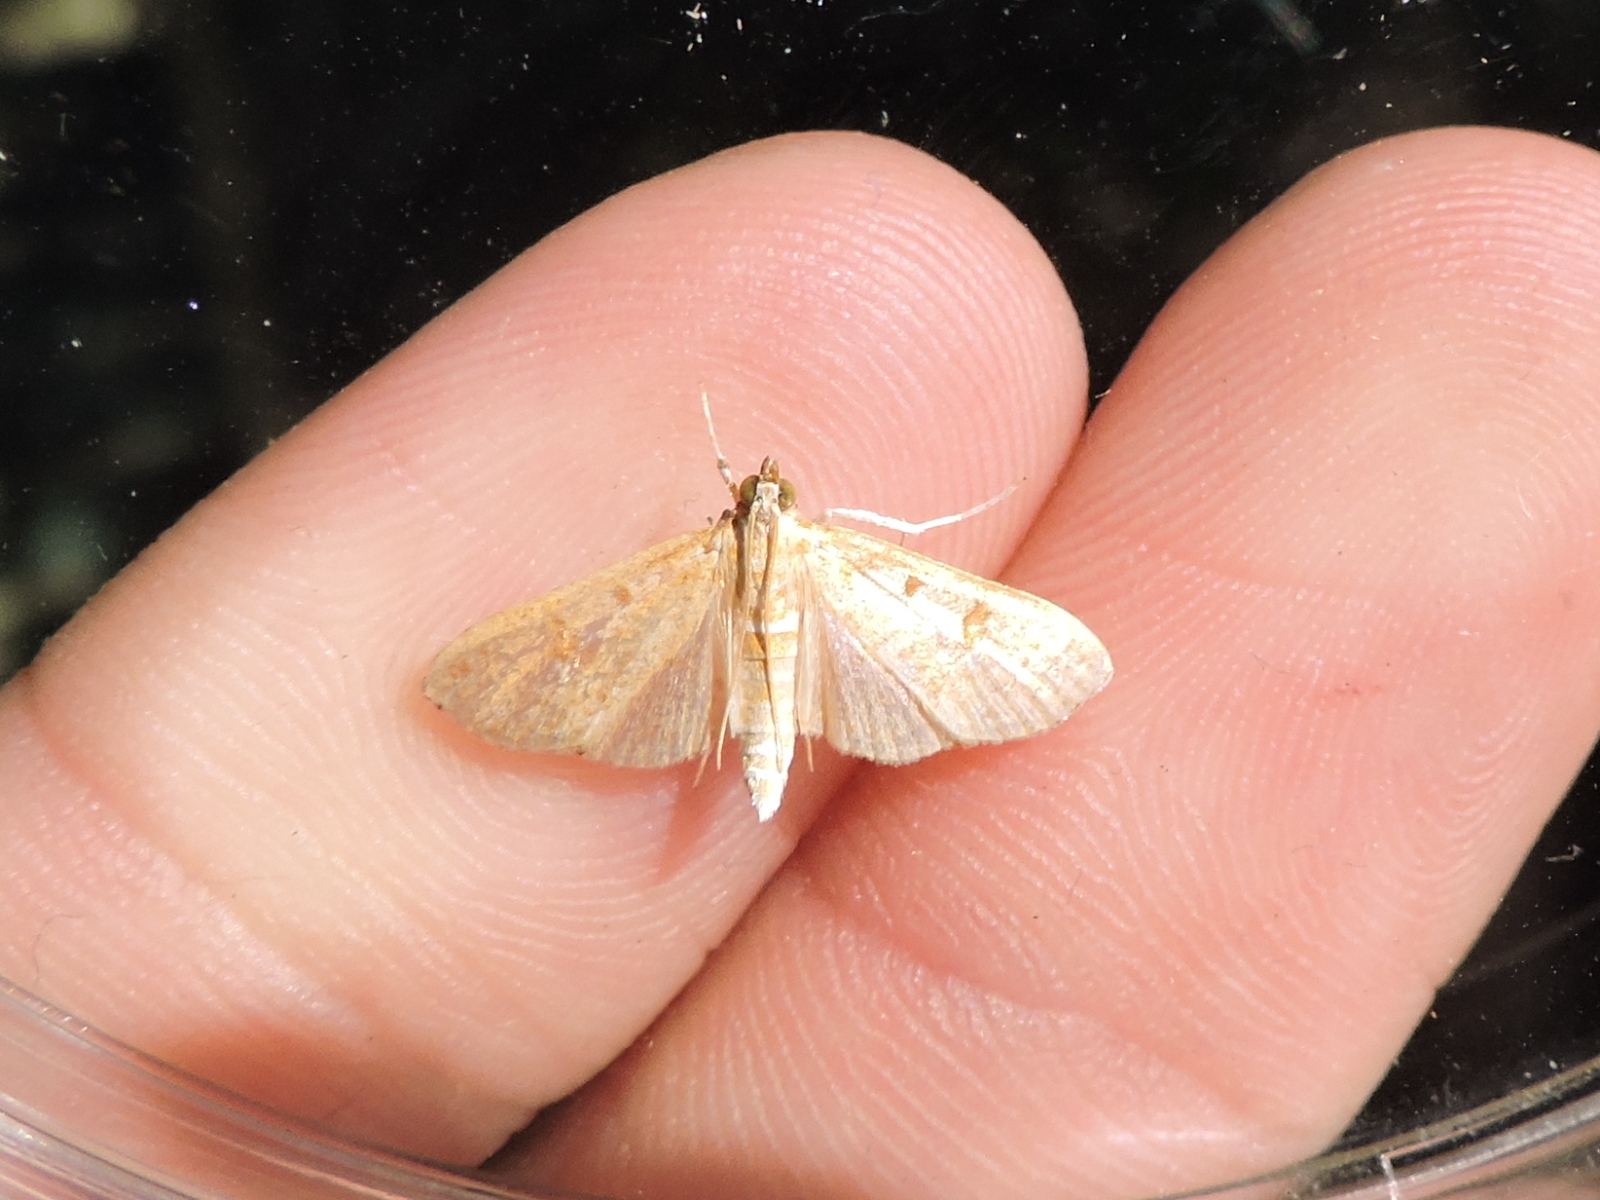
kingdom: Animalia
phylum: Arthropoda
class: Insecta
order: Lepidoptera
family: Crambidae
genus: Palpita
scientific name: Palpita illibalis
